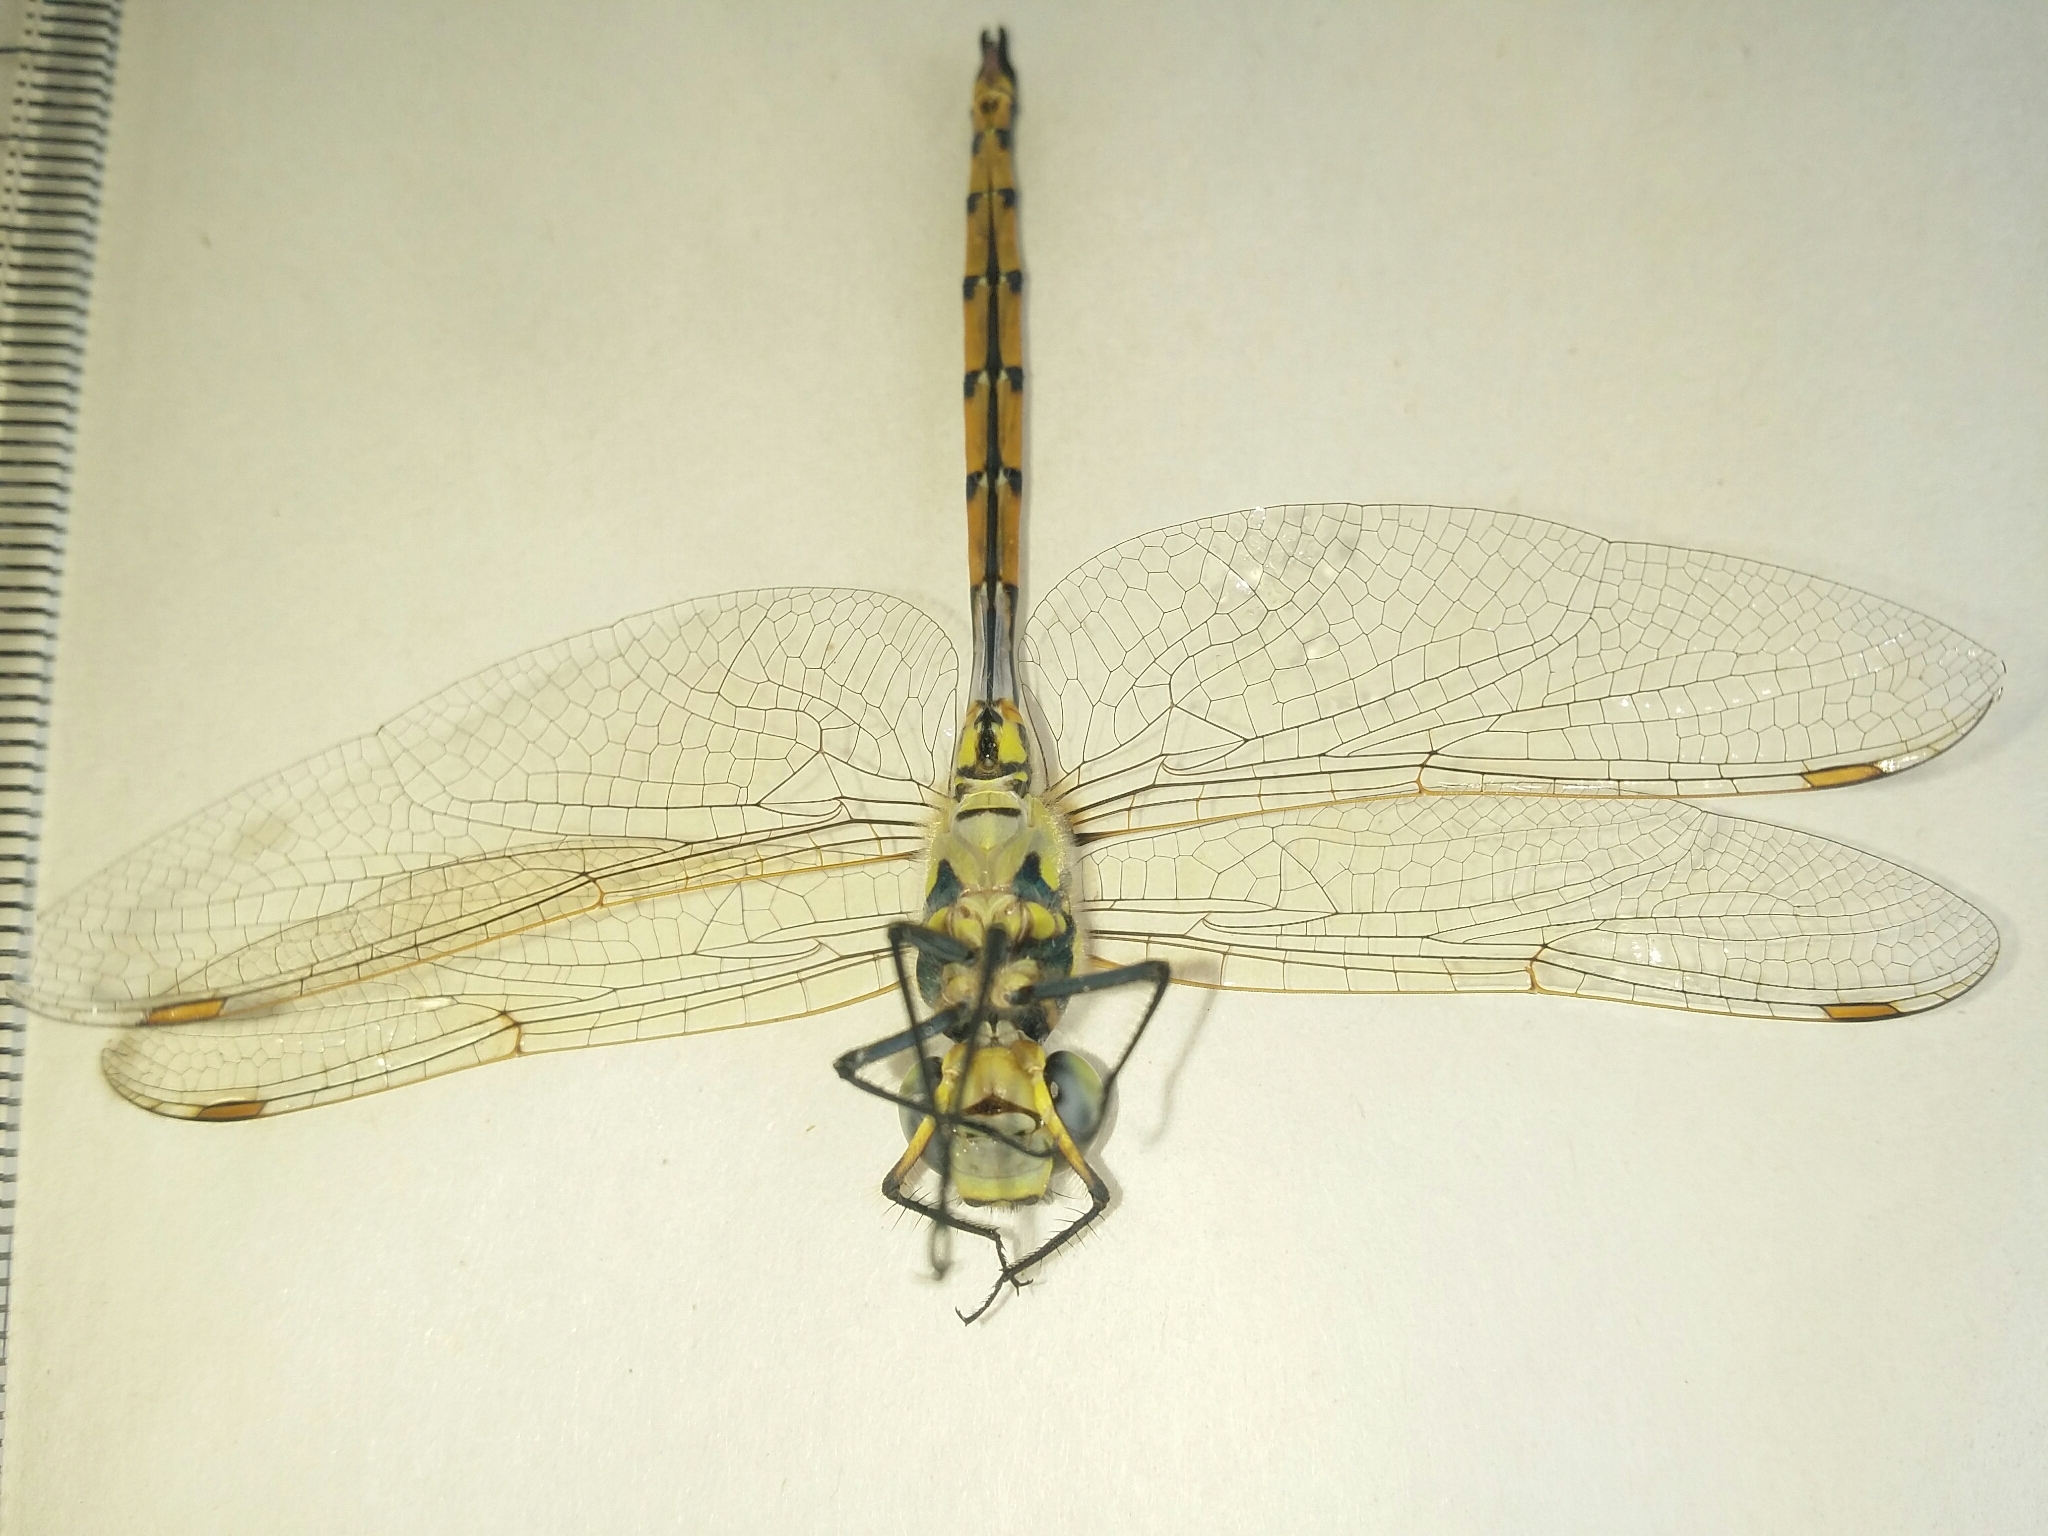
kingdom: Animalia
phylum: Arthropoda
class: Insecta
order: Odonata
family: Corduliidae
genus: Hemicordulia
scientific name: Hemicordulia tau
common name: Tau emerald
